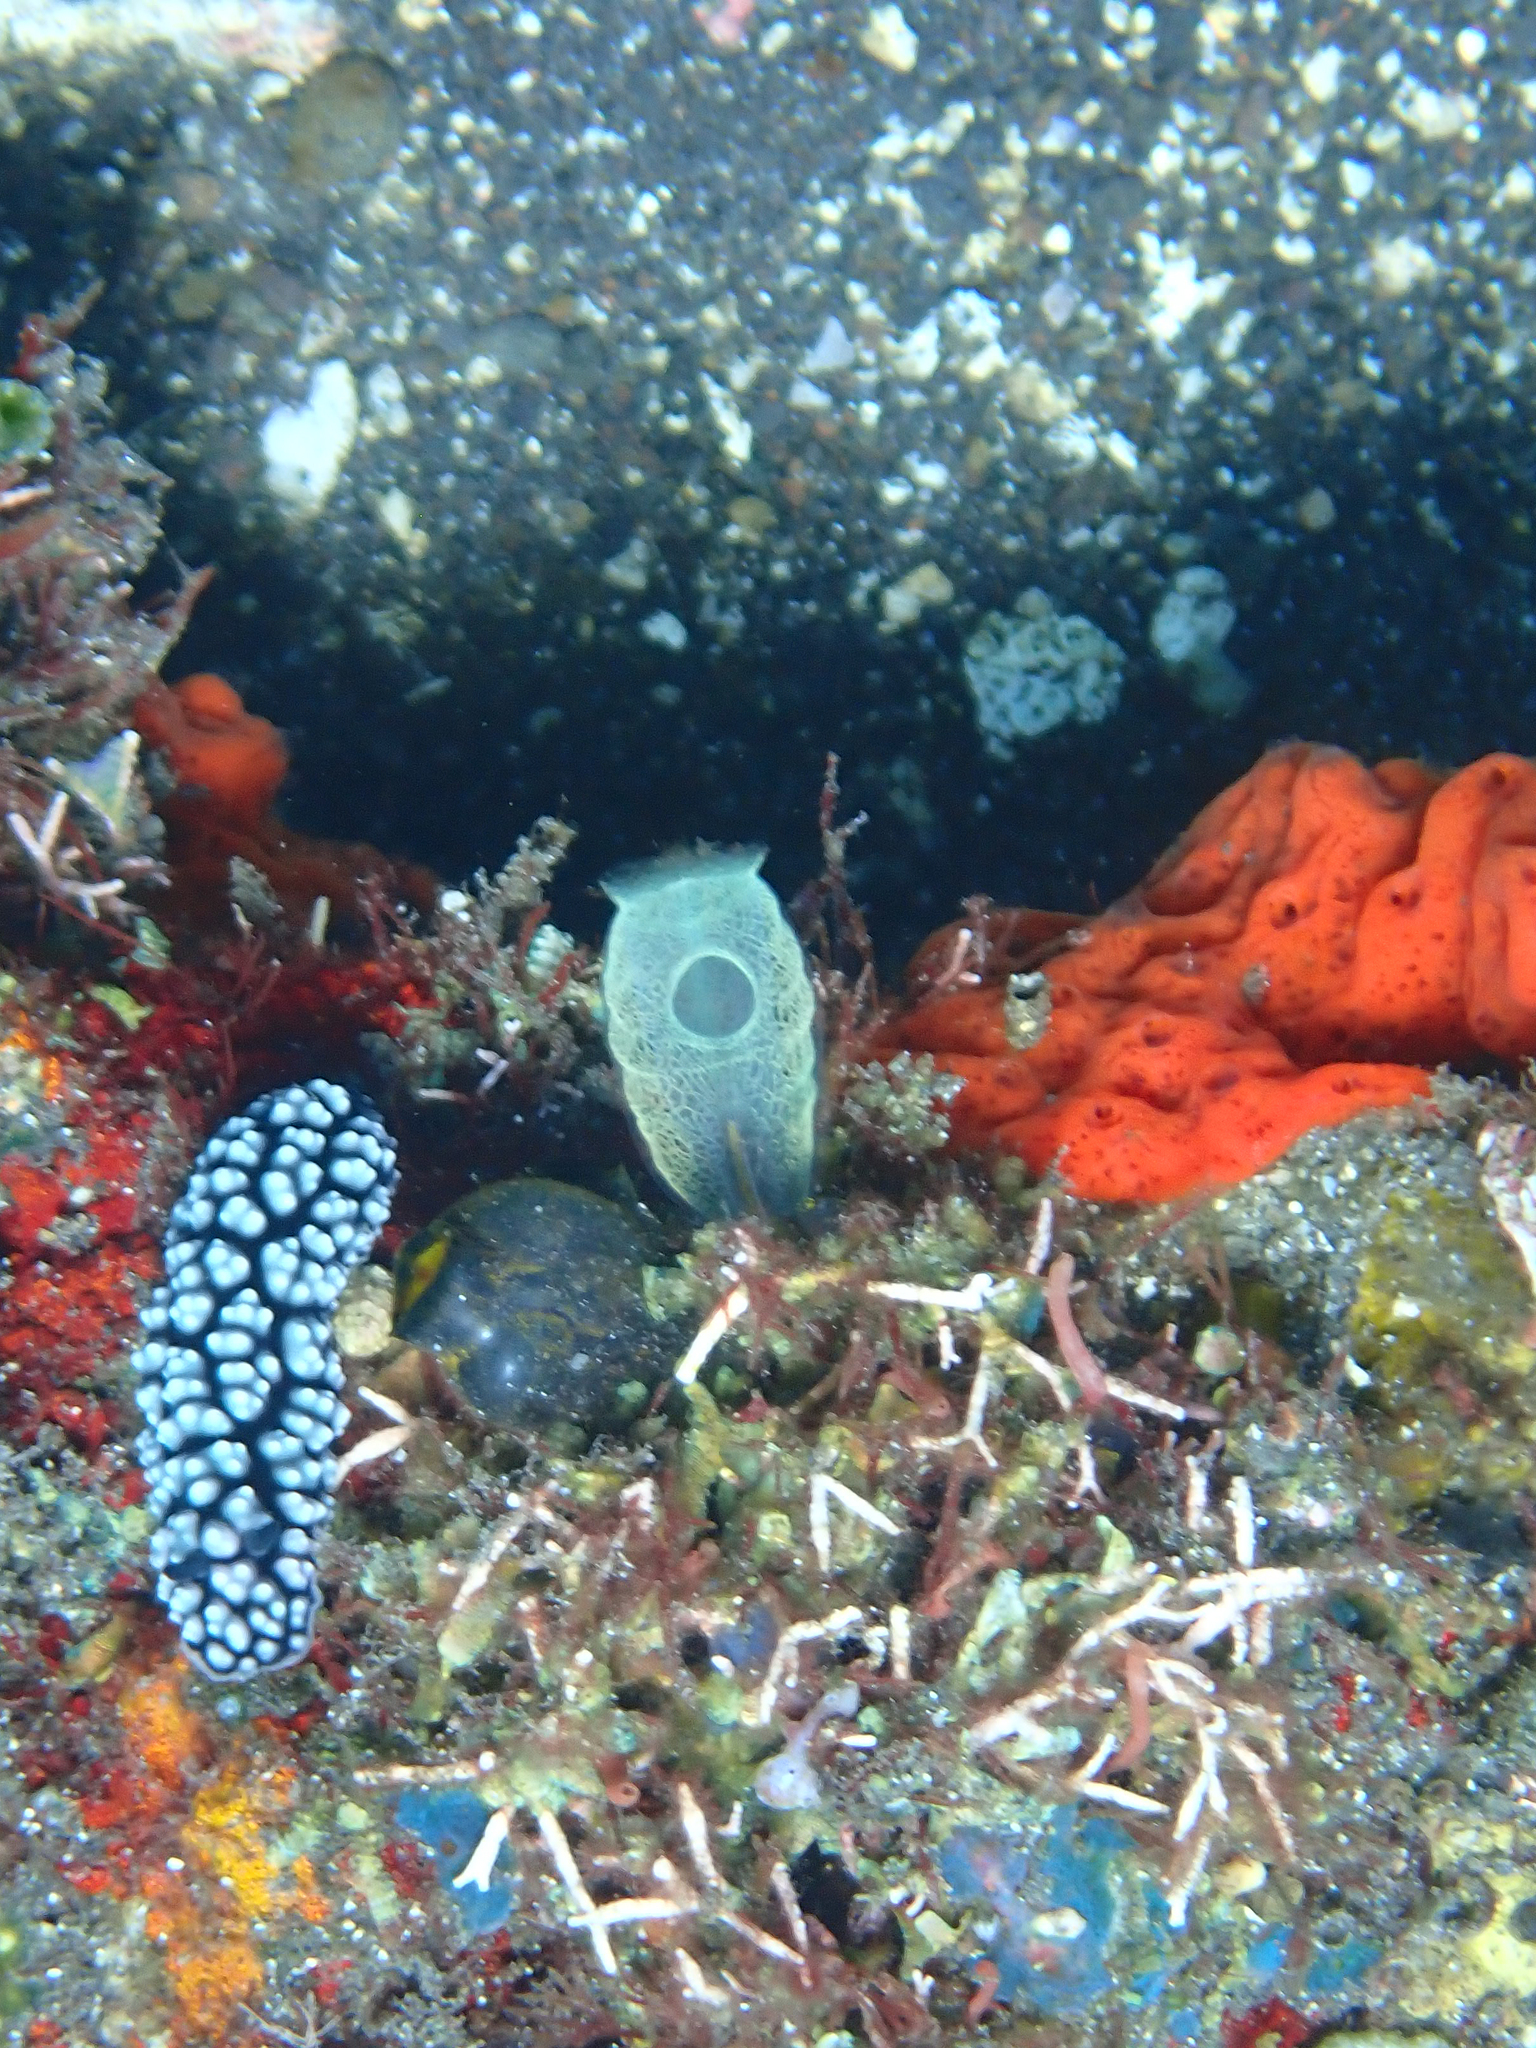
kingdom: Animalia
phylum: Mollusca
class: Gastropoda
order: Nudibranchia
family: Phyllidiidae
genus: Phyllidiella
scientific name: Phyllidiella pustulosa
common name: Pustular phyllidia
